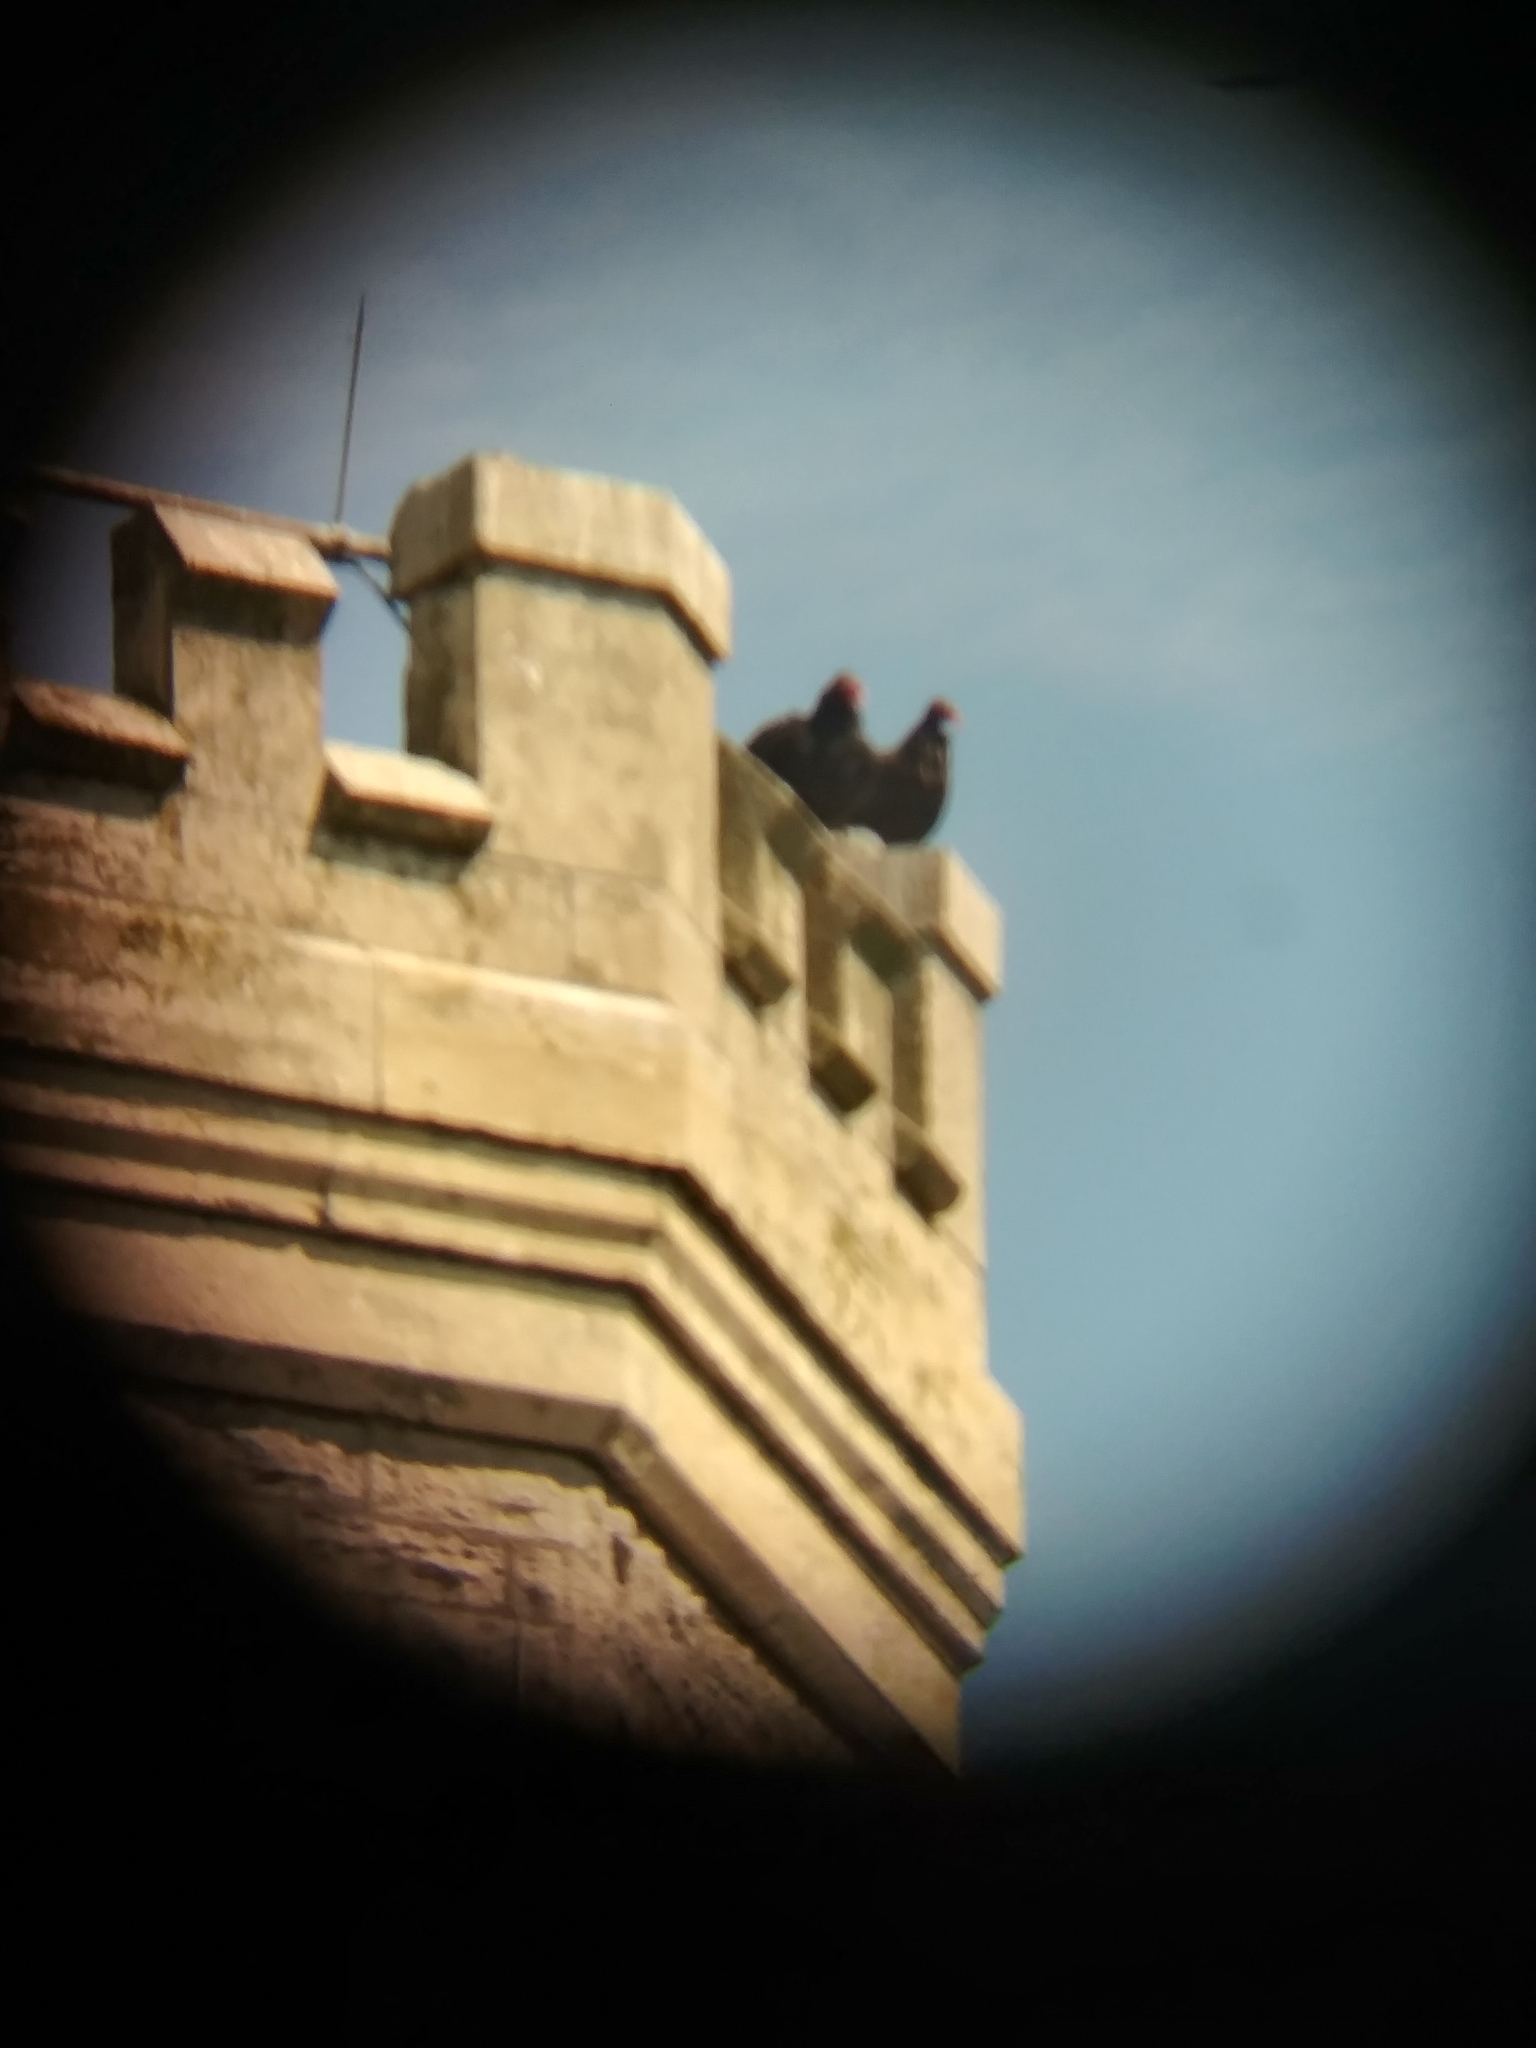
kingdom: Animalia
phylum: Chordata
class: Aves
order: Accipitriformes
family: Cathartidae
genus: Cathartes
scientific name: Cathartes aura
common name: Turkey vulture
